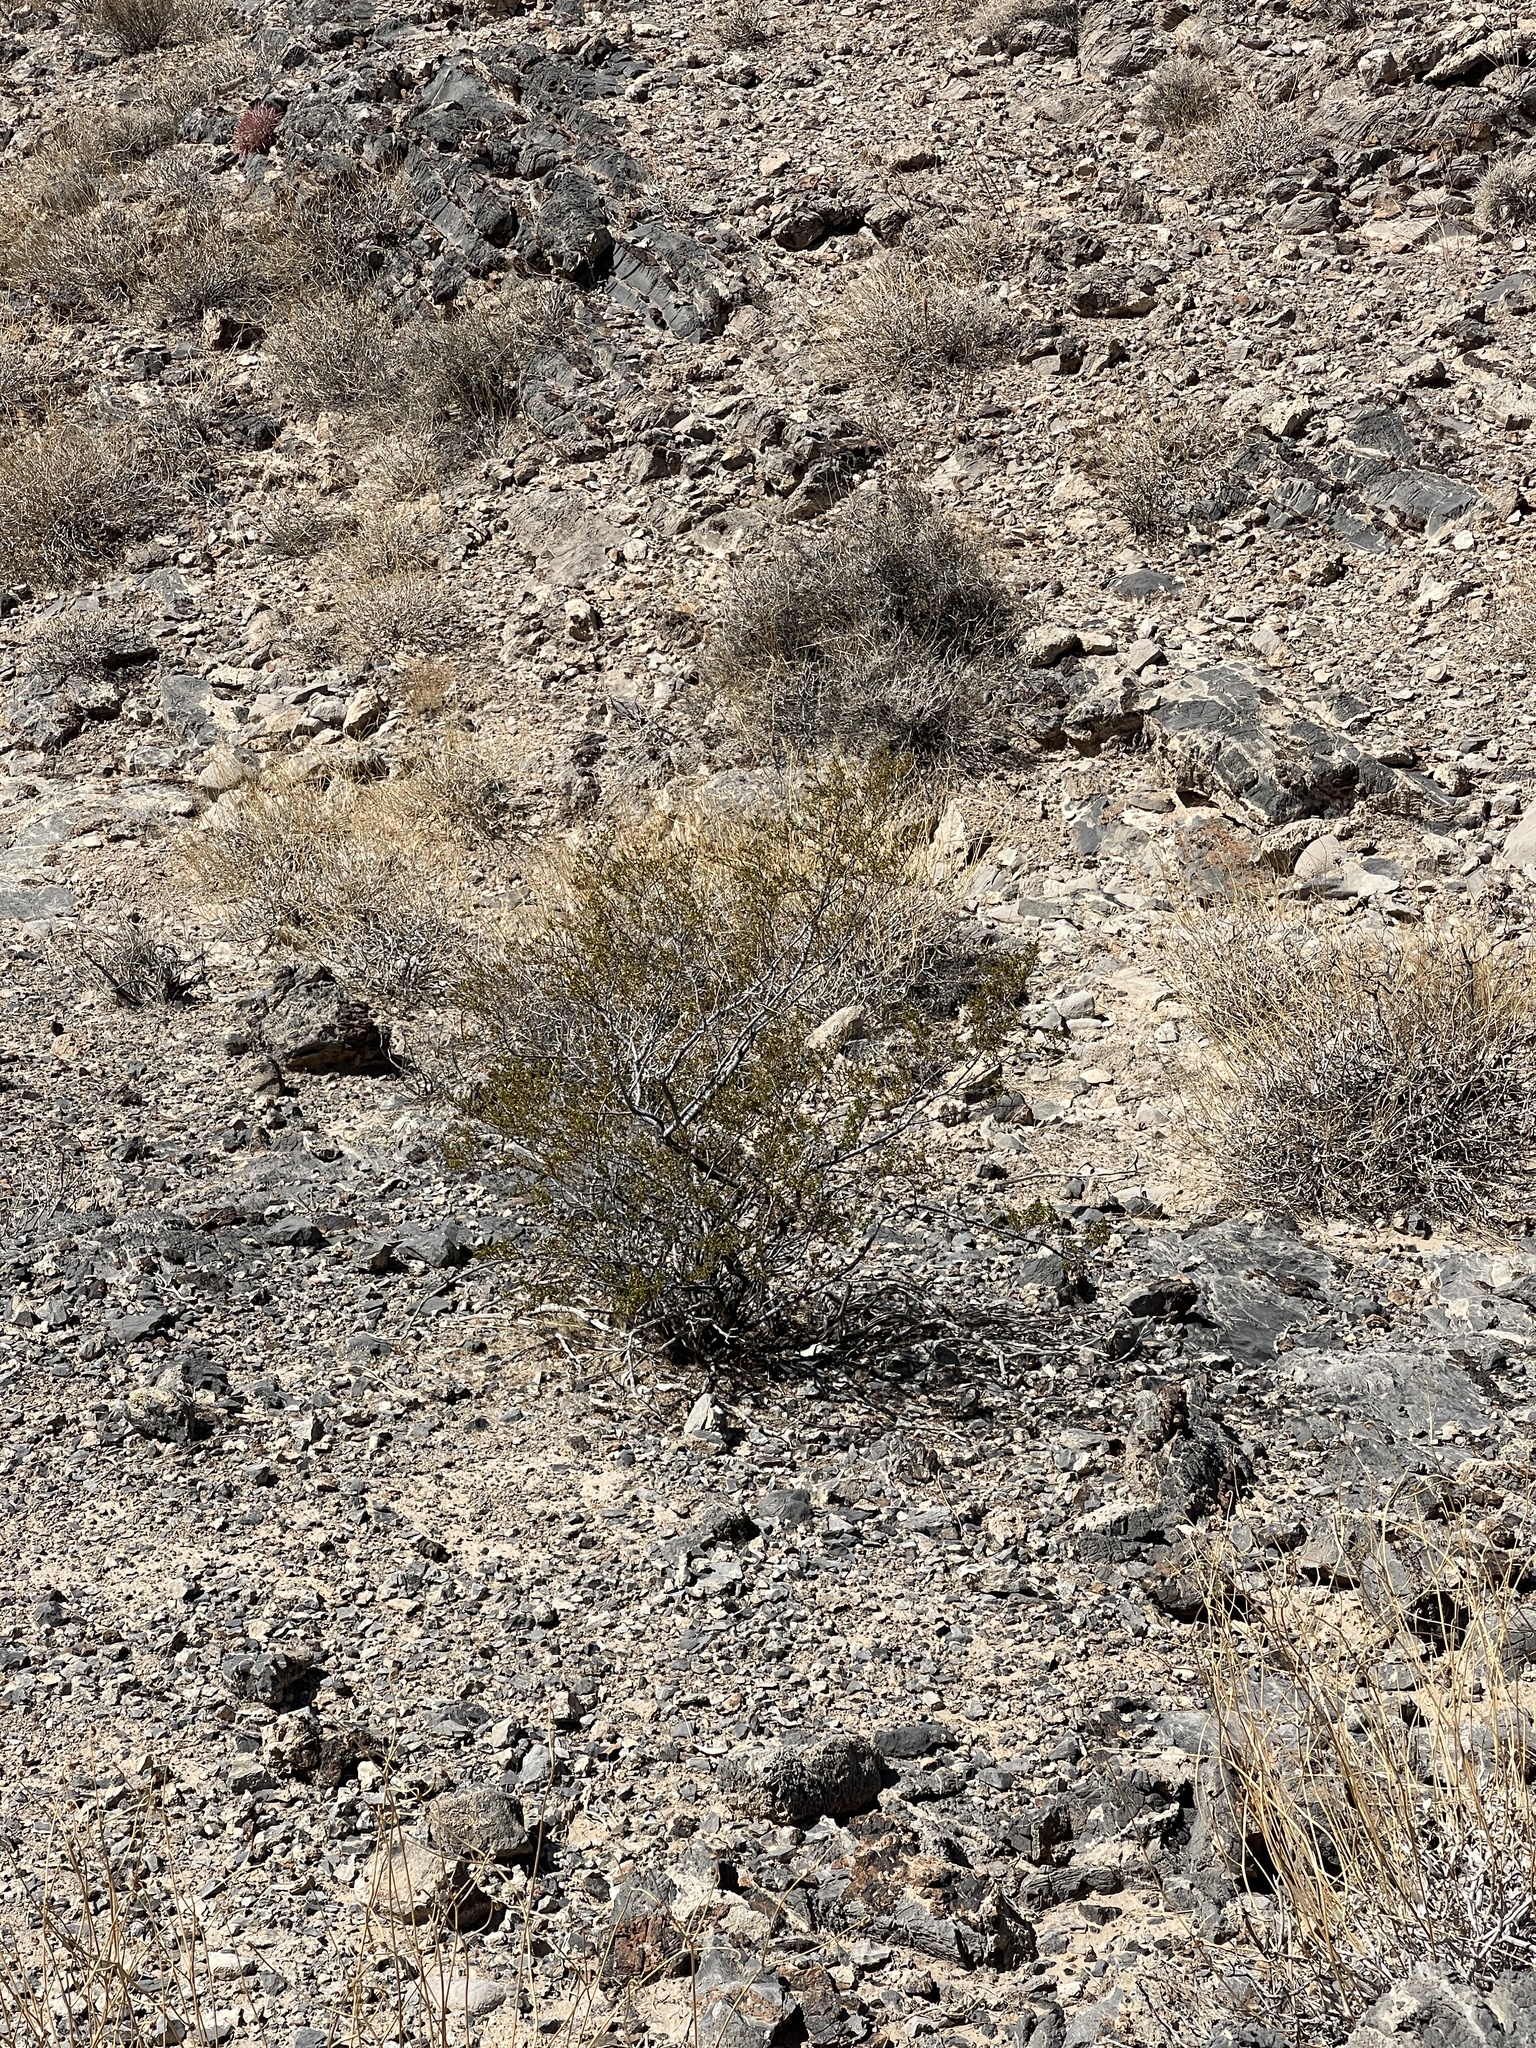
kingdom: Plantae
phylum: Tracheophyta
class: Magnoliopsida
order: Zygophyllales
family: Zygophyllaceae
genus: Larrea
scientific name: Larrea tridentata
